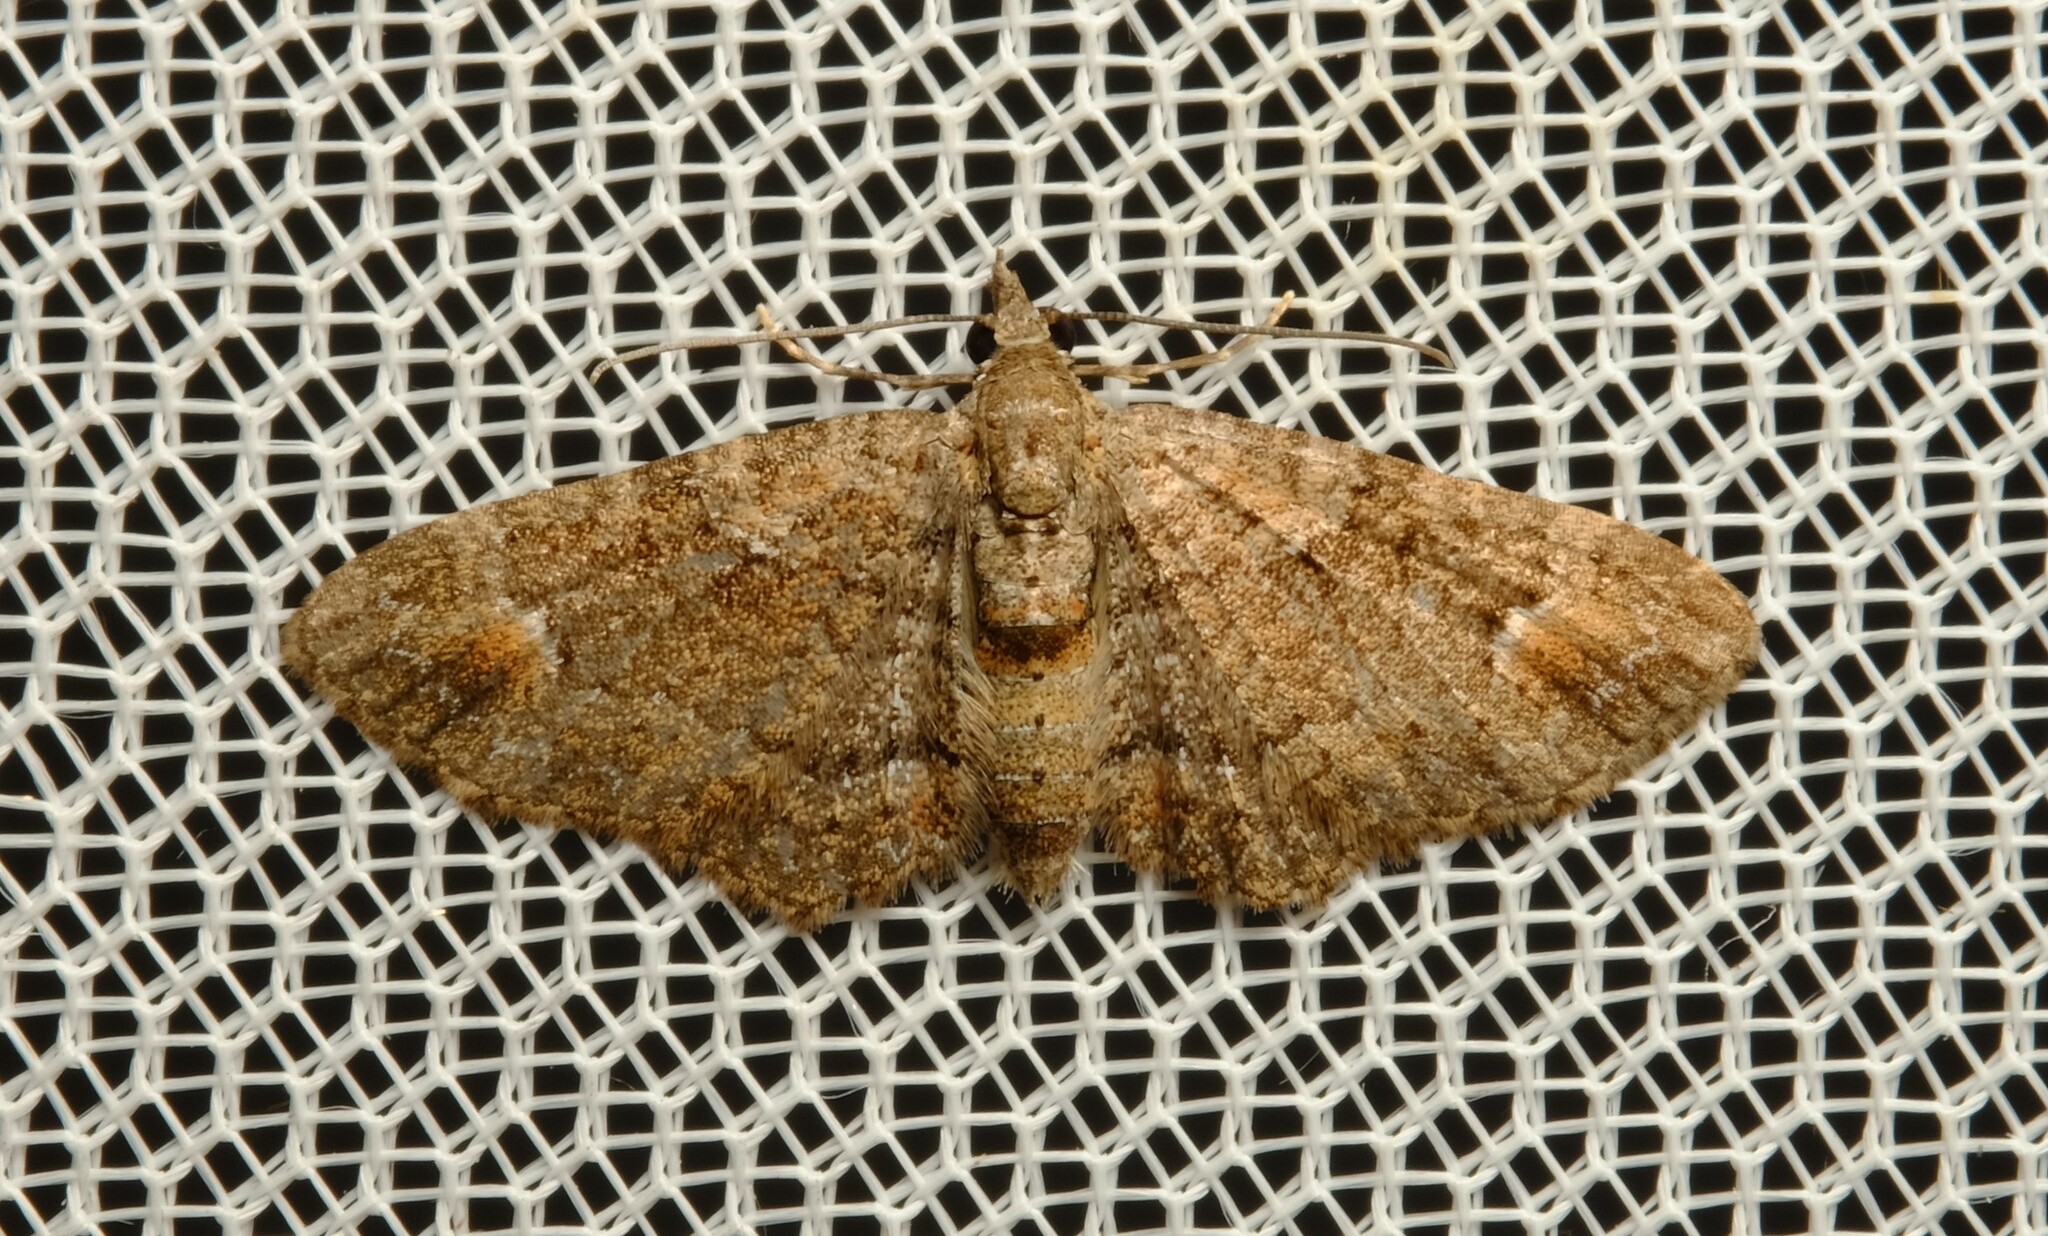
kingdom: Animalia
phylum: Arthropoda
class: Insecta
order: Lepidoptera
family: Geometridae
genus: Pasiphilodes
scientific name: Pasiphilodes testulata
